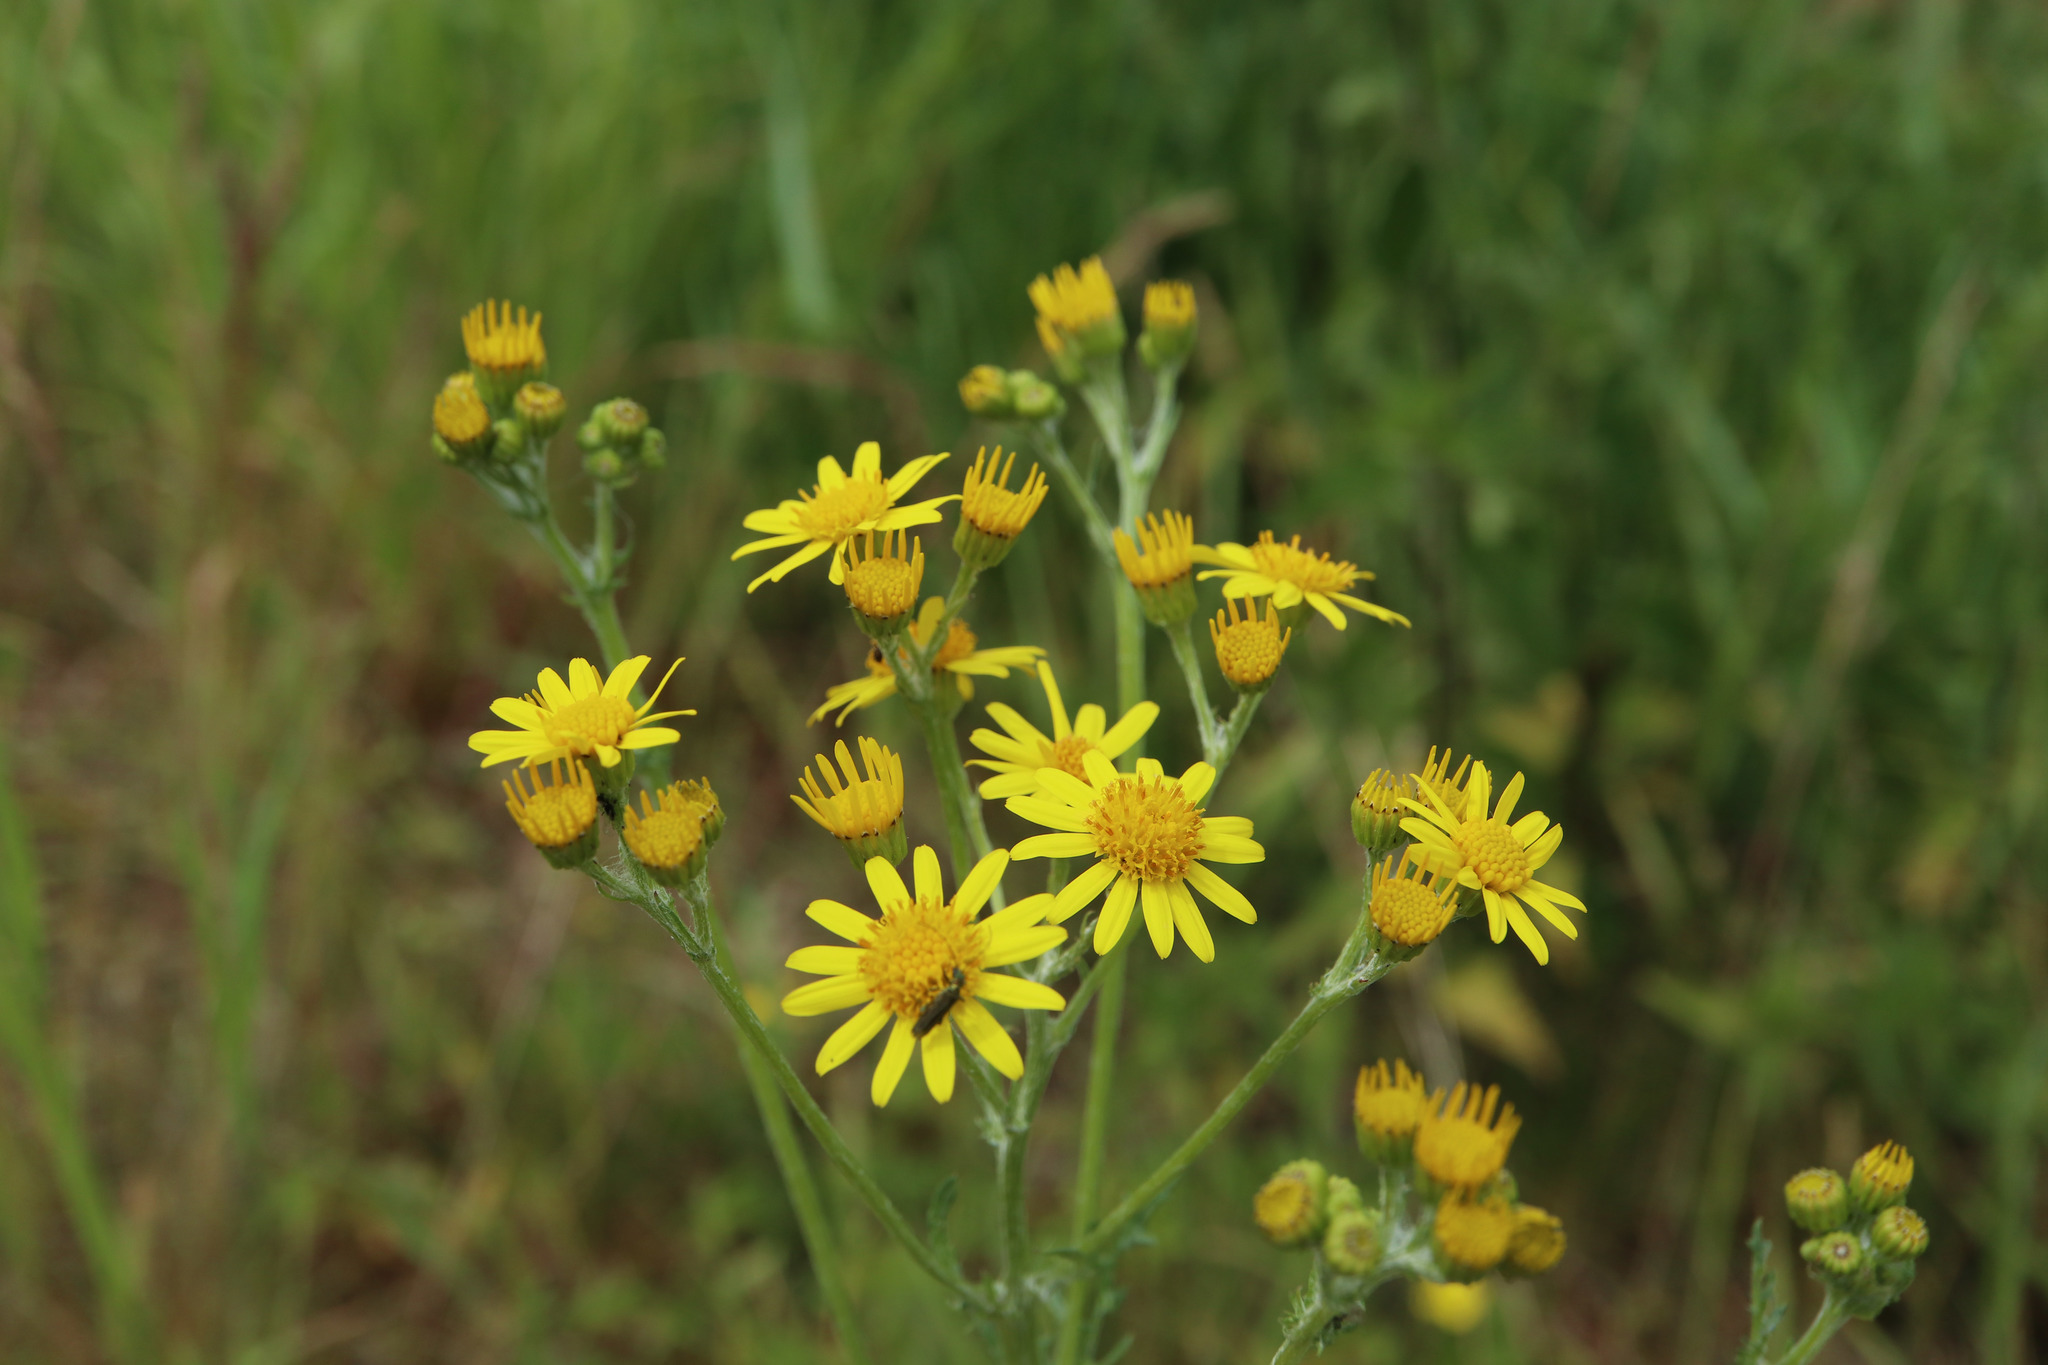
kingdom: Plantae
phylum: Tracheophyta
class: Magnoliopsida
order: Asterales
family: Asteraceae
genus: Jacobaea
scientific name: Jacobaea vulgaris
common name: Stinking willie
